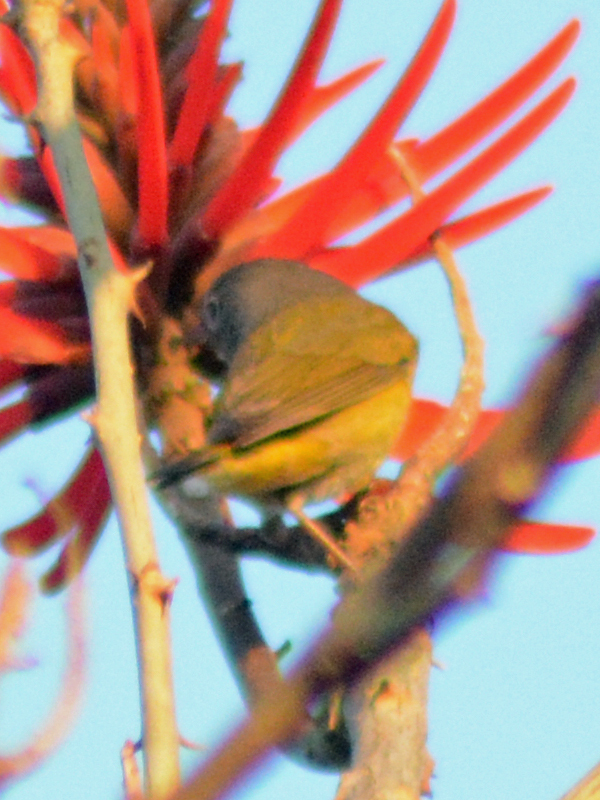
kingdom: Animalia
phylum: Chordata
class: Aves
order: Passeriformes
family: Parulidae
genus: Leiothlypis
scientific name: Leiothlypis ruficapilla
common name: Nashville warbler
